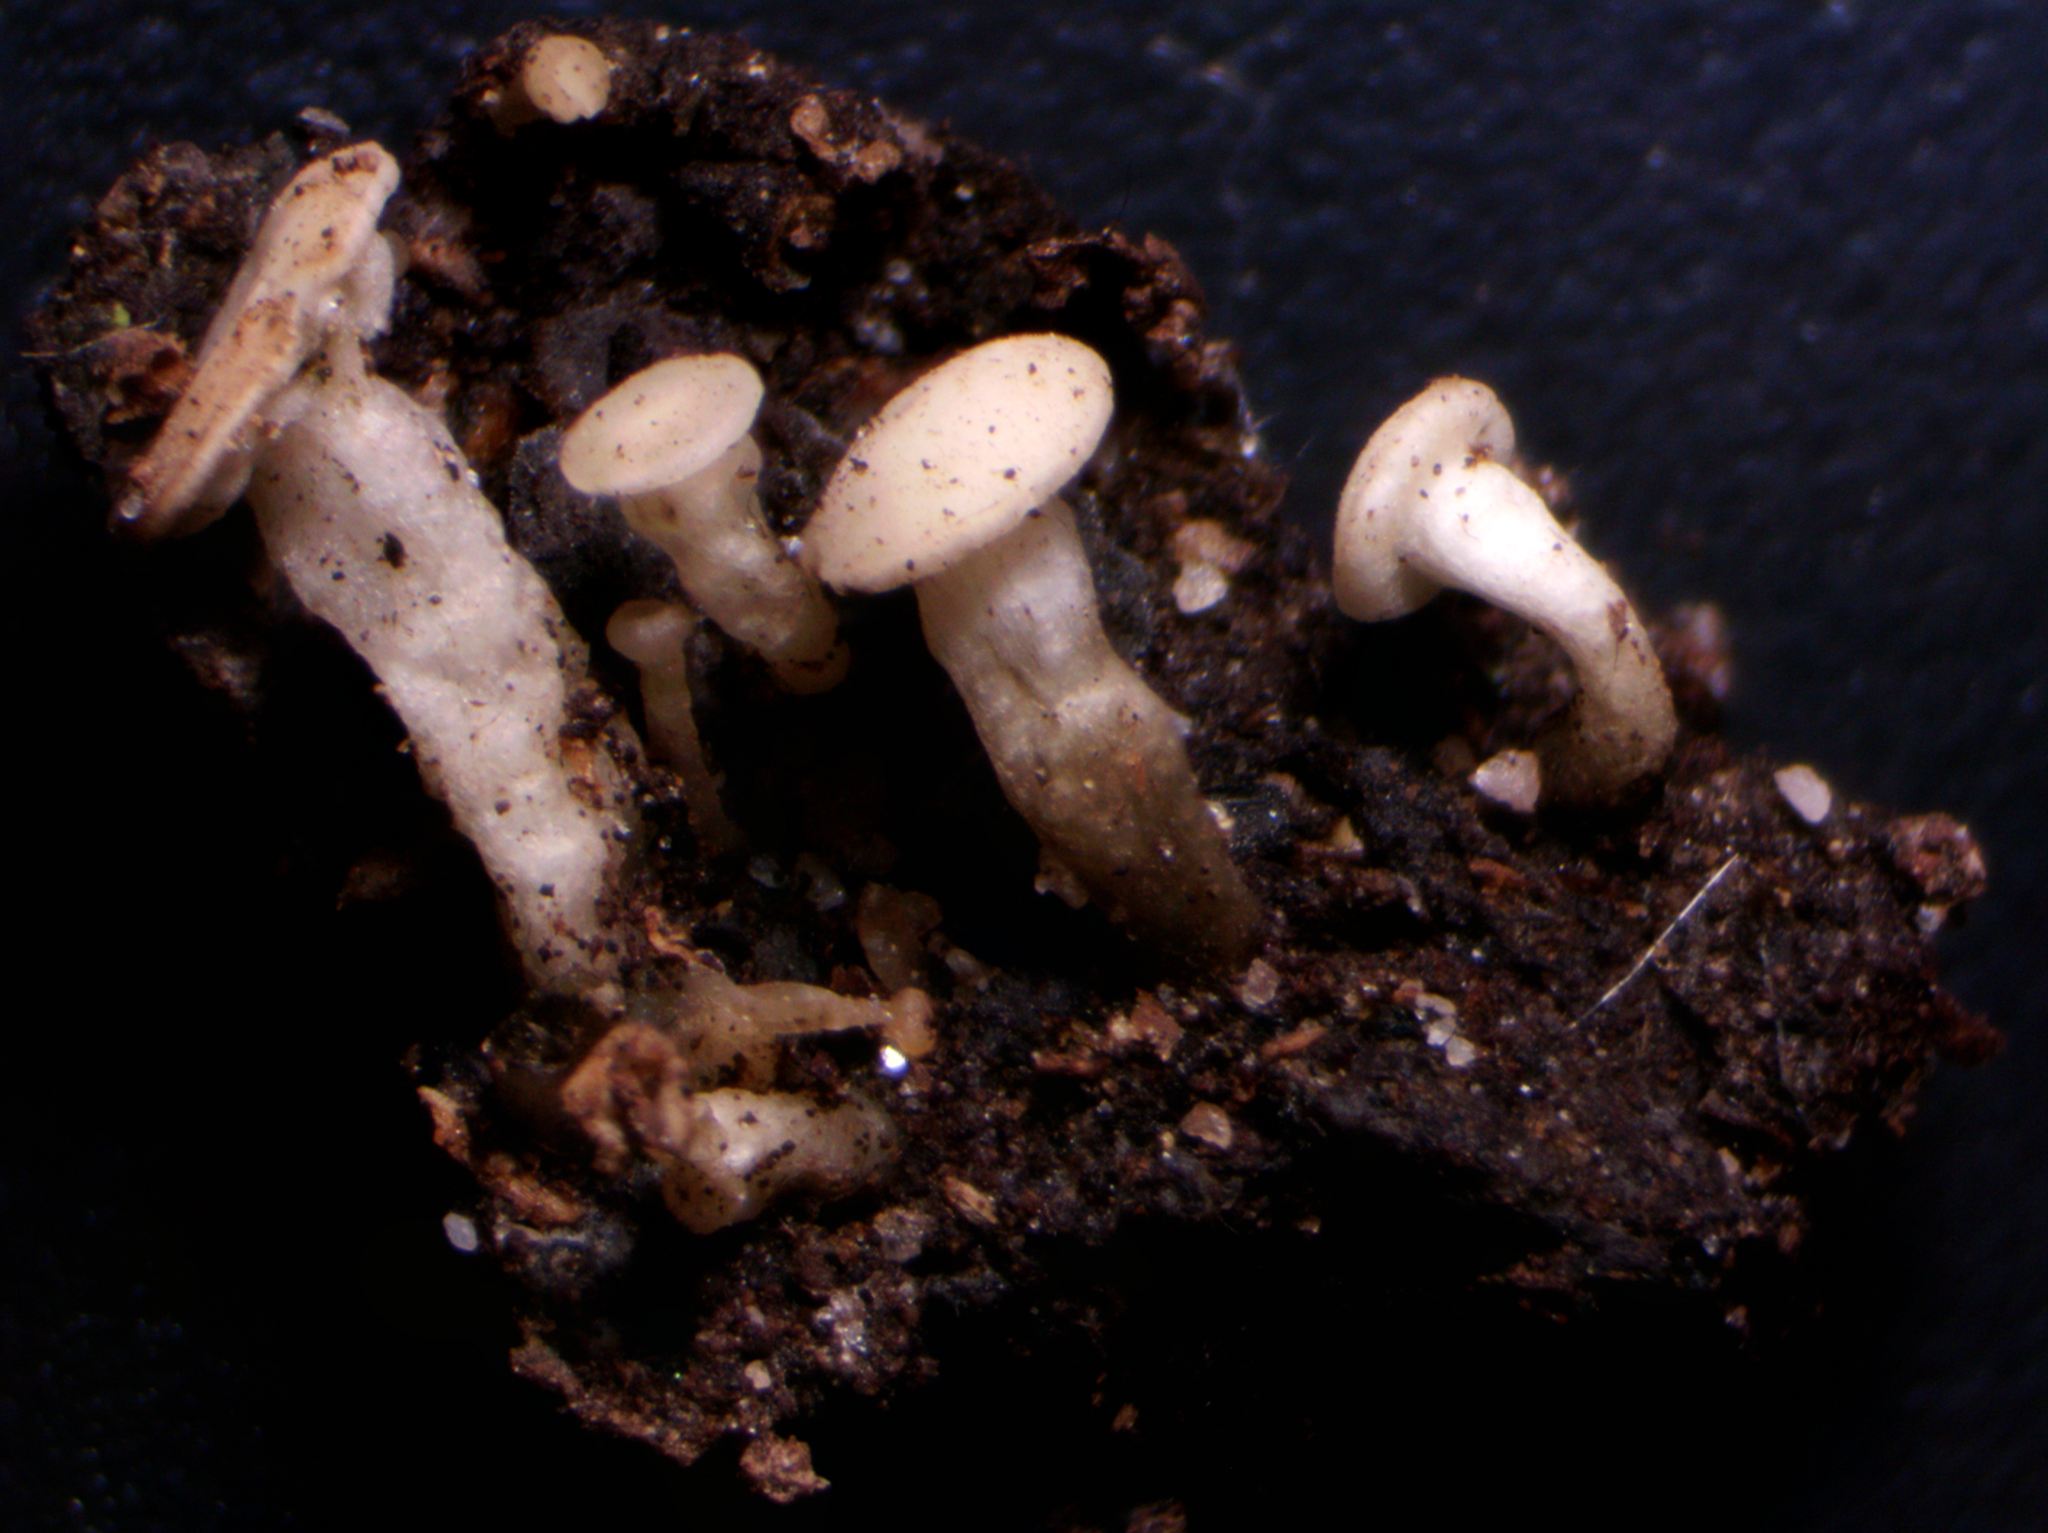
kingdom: Fungi
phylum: Ascomycota
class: Leotiomycetes
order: Helotiales
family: Tricladiaceae
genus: Cudoniella
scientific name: Cudoniella acicularis
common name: Oak pin
